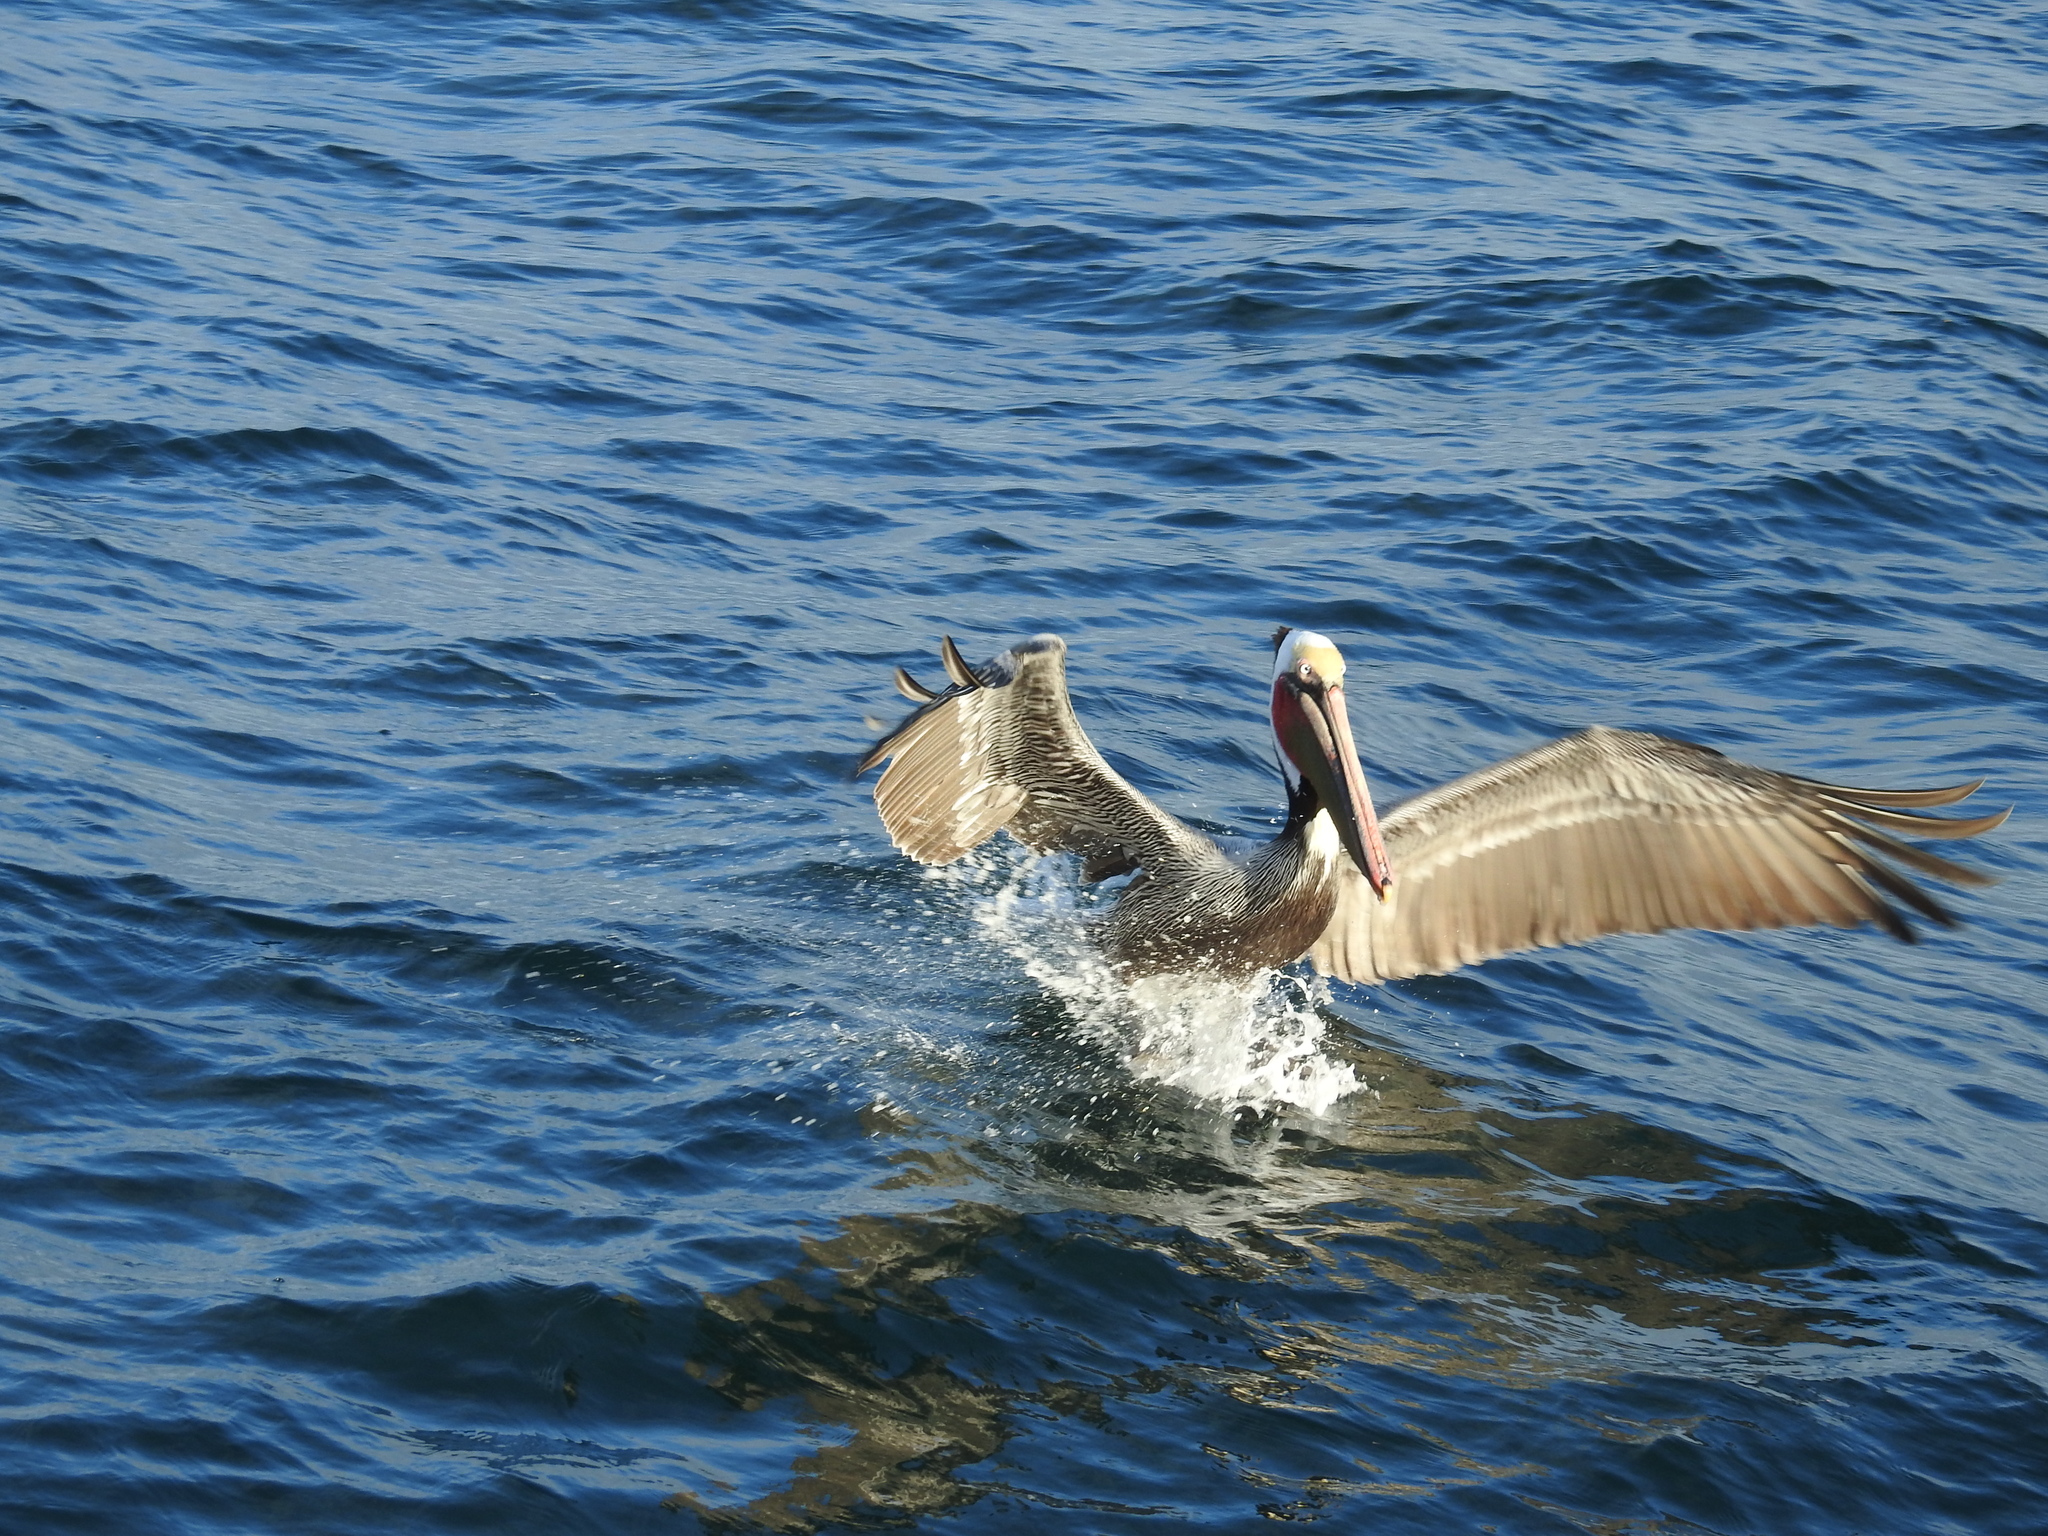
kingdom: Animalia
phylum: Chordata
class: Aves
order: Pelecaniformes
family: Pelecanidae
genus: Pelecanus
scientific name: Pelecanus occidentalis
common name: Brown pelican
